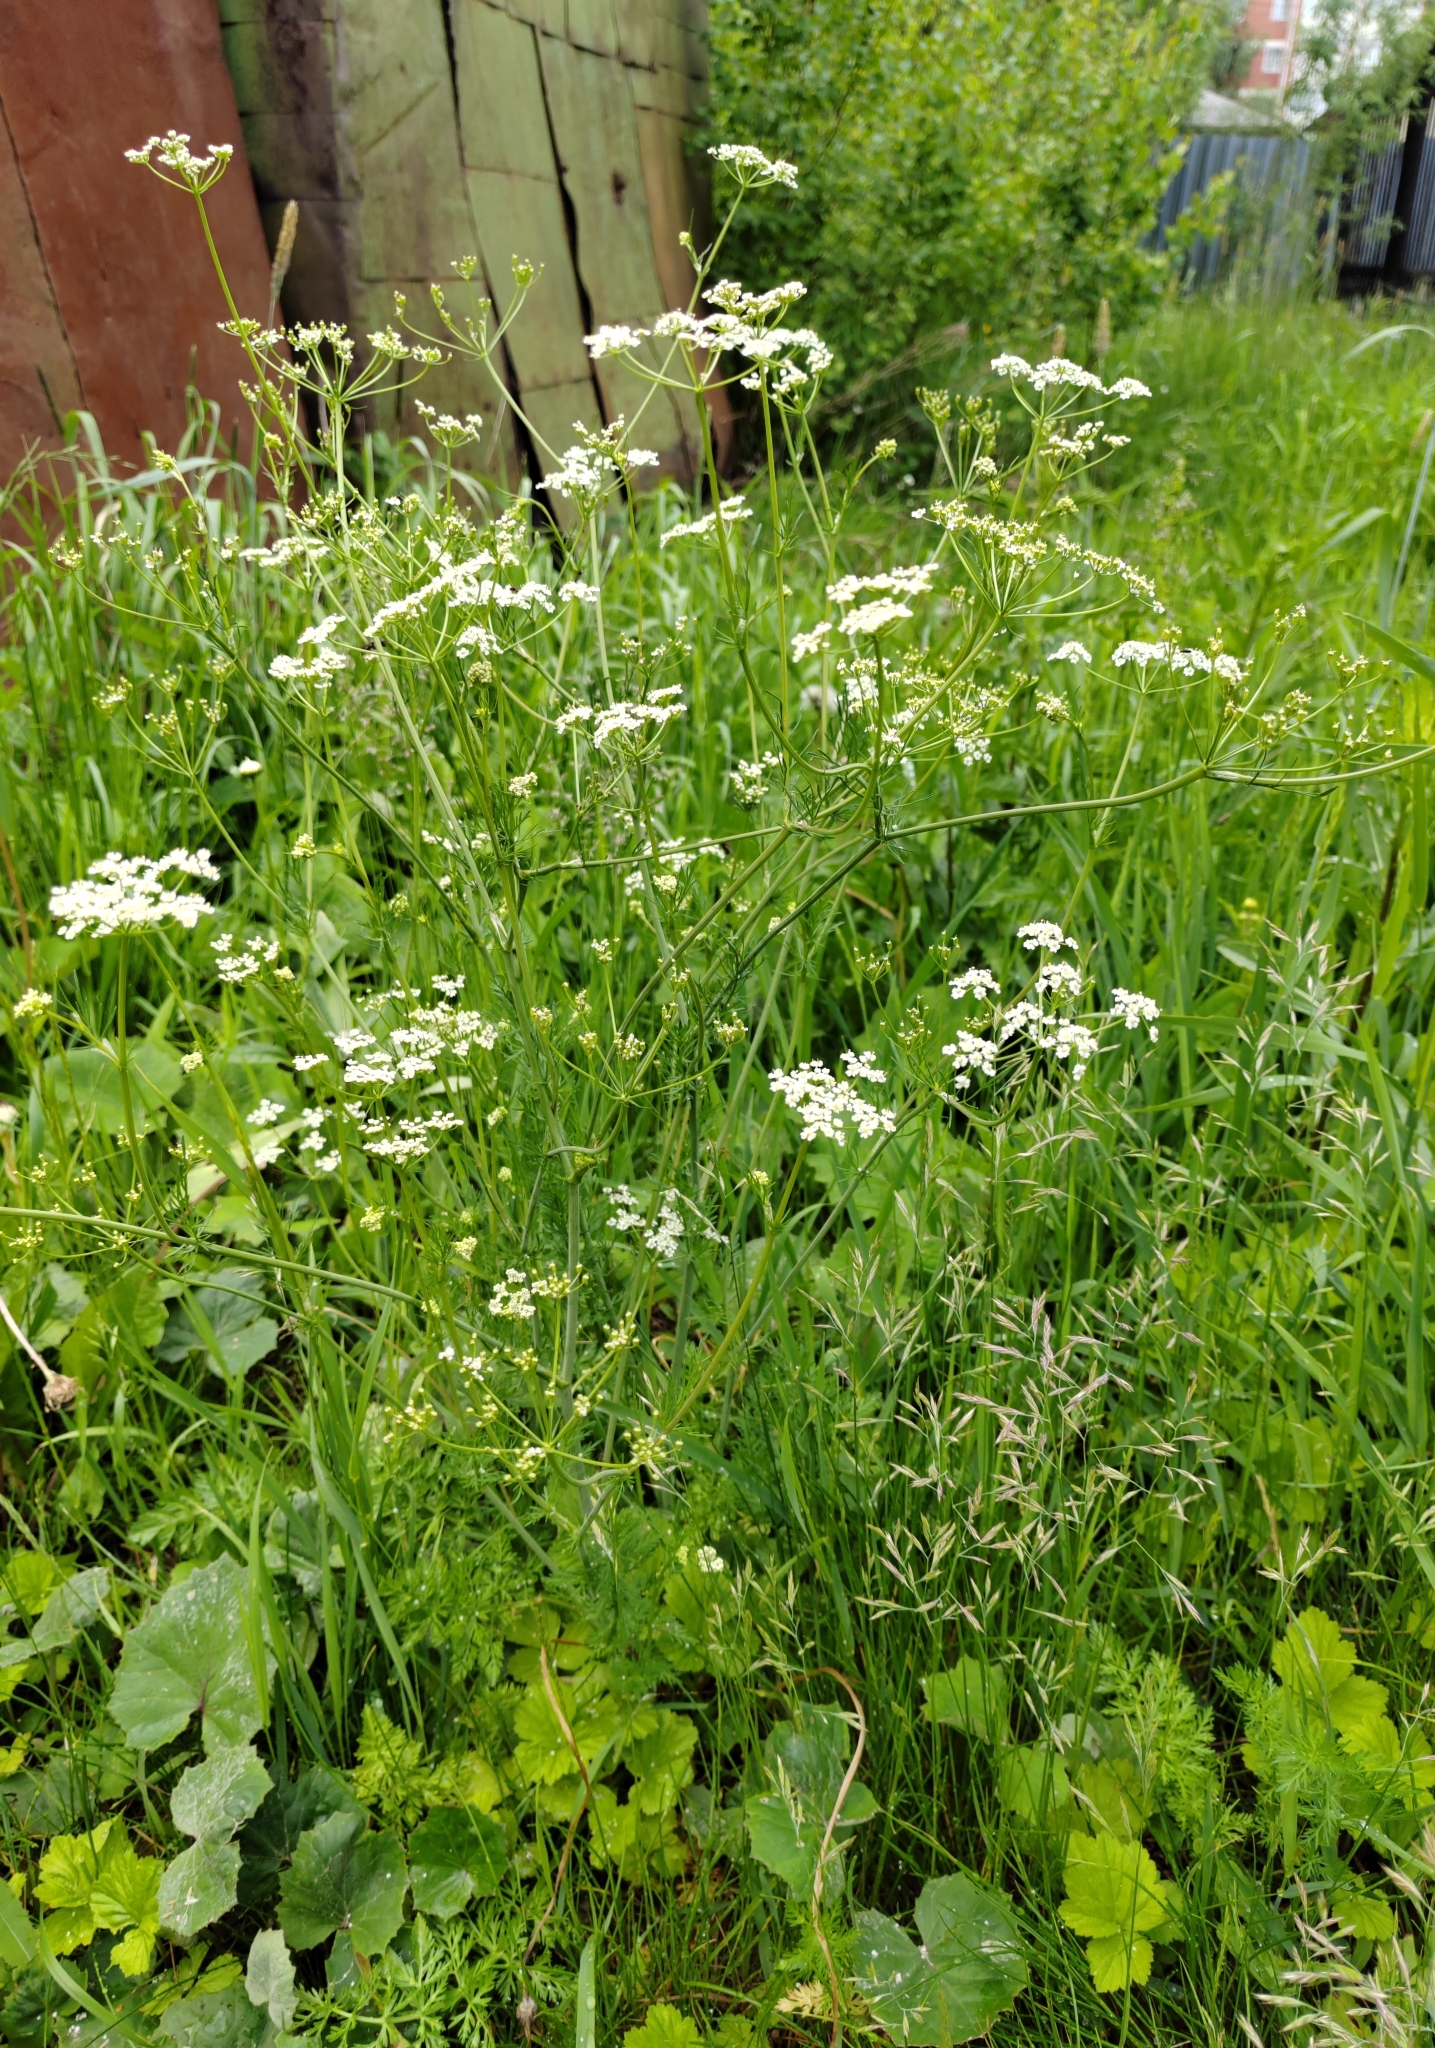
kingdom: Plantae
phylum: Tracheophyta
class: Magnoliopsida
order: Apiales
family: Apiaceae
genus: Carum
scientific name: Carum carvi
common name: Caraway
